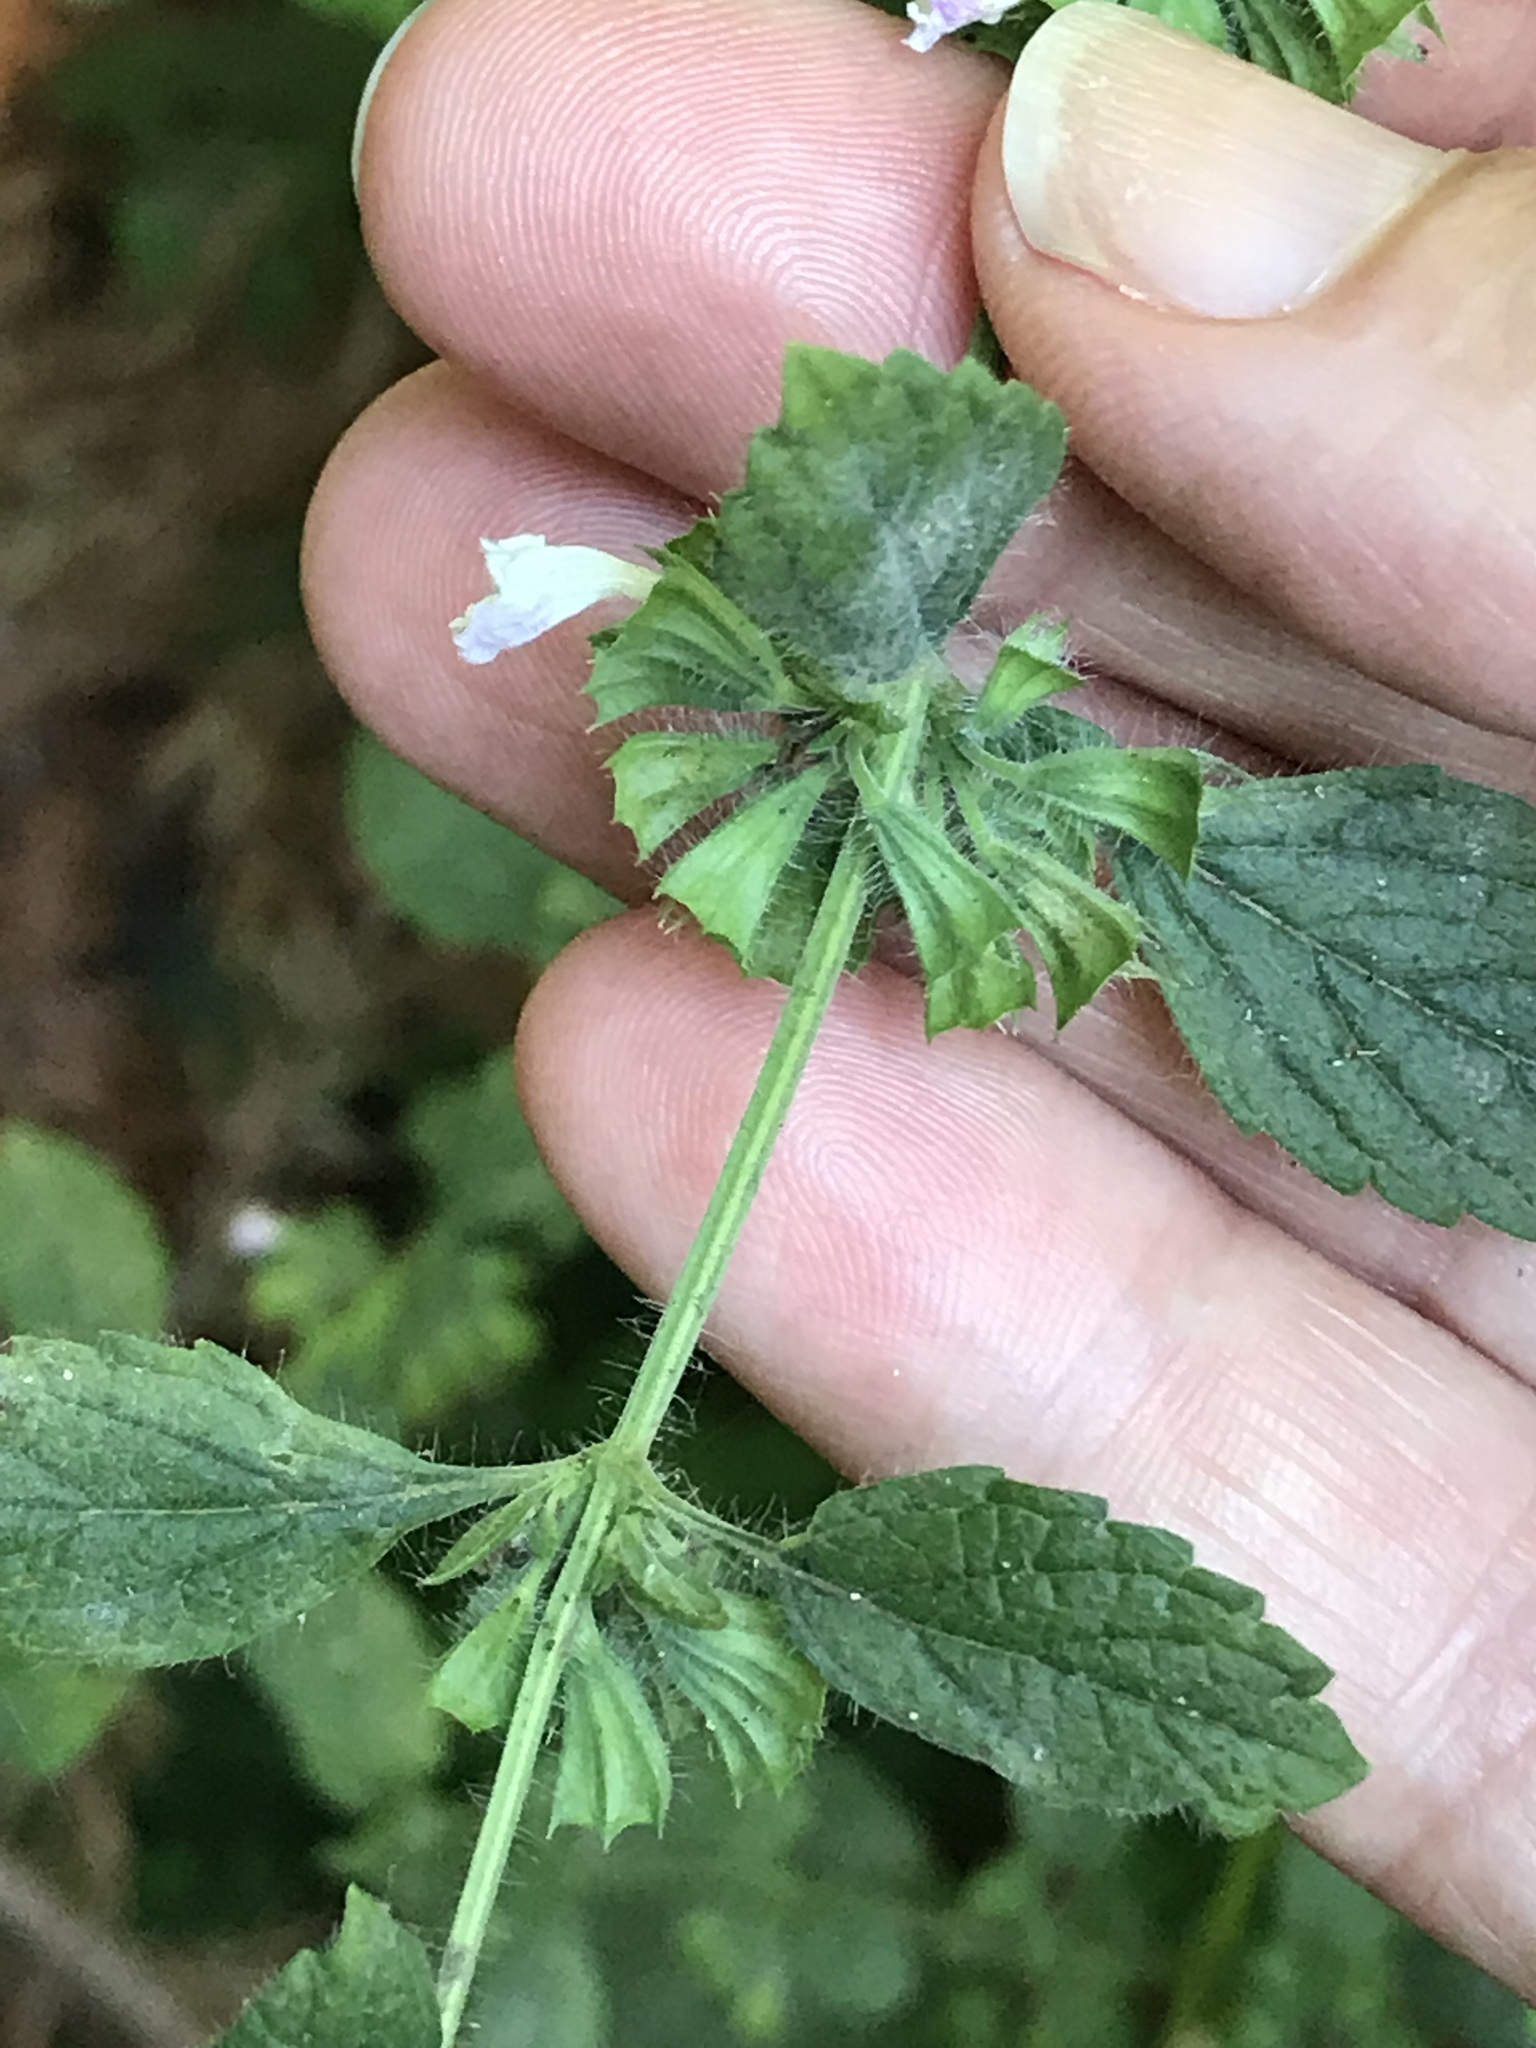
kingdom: Plantae
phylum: Tracheophyta
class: Magnoliopsida
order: Lamiales
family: Lamiaceae
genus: Melissa
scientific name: Melissa officinalis
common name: Balm
